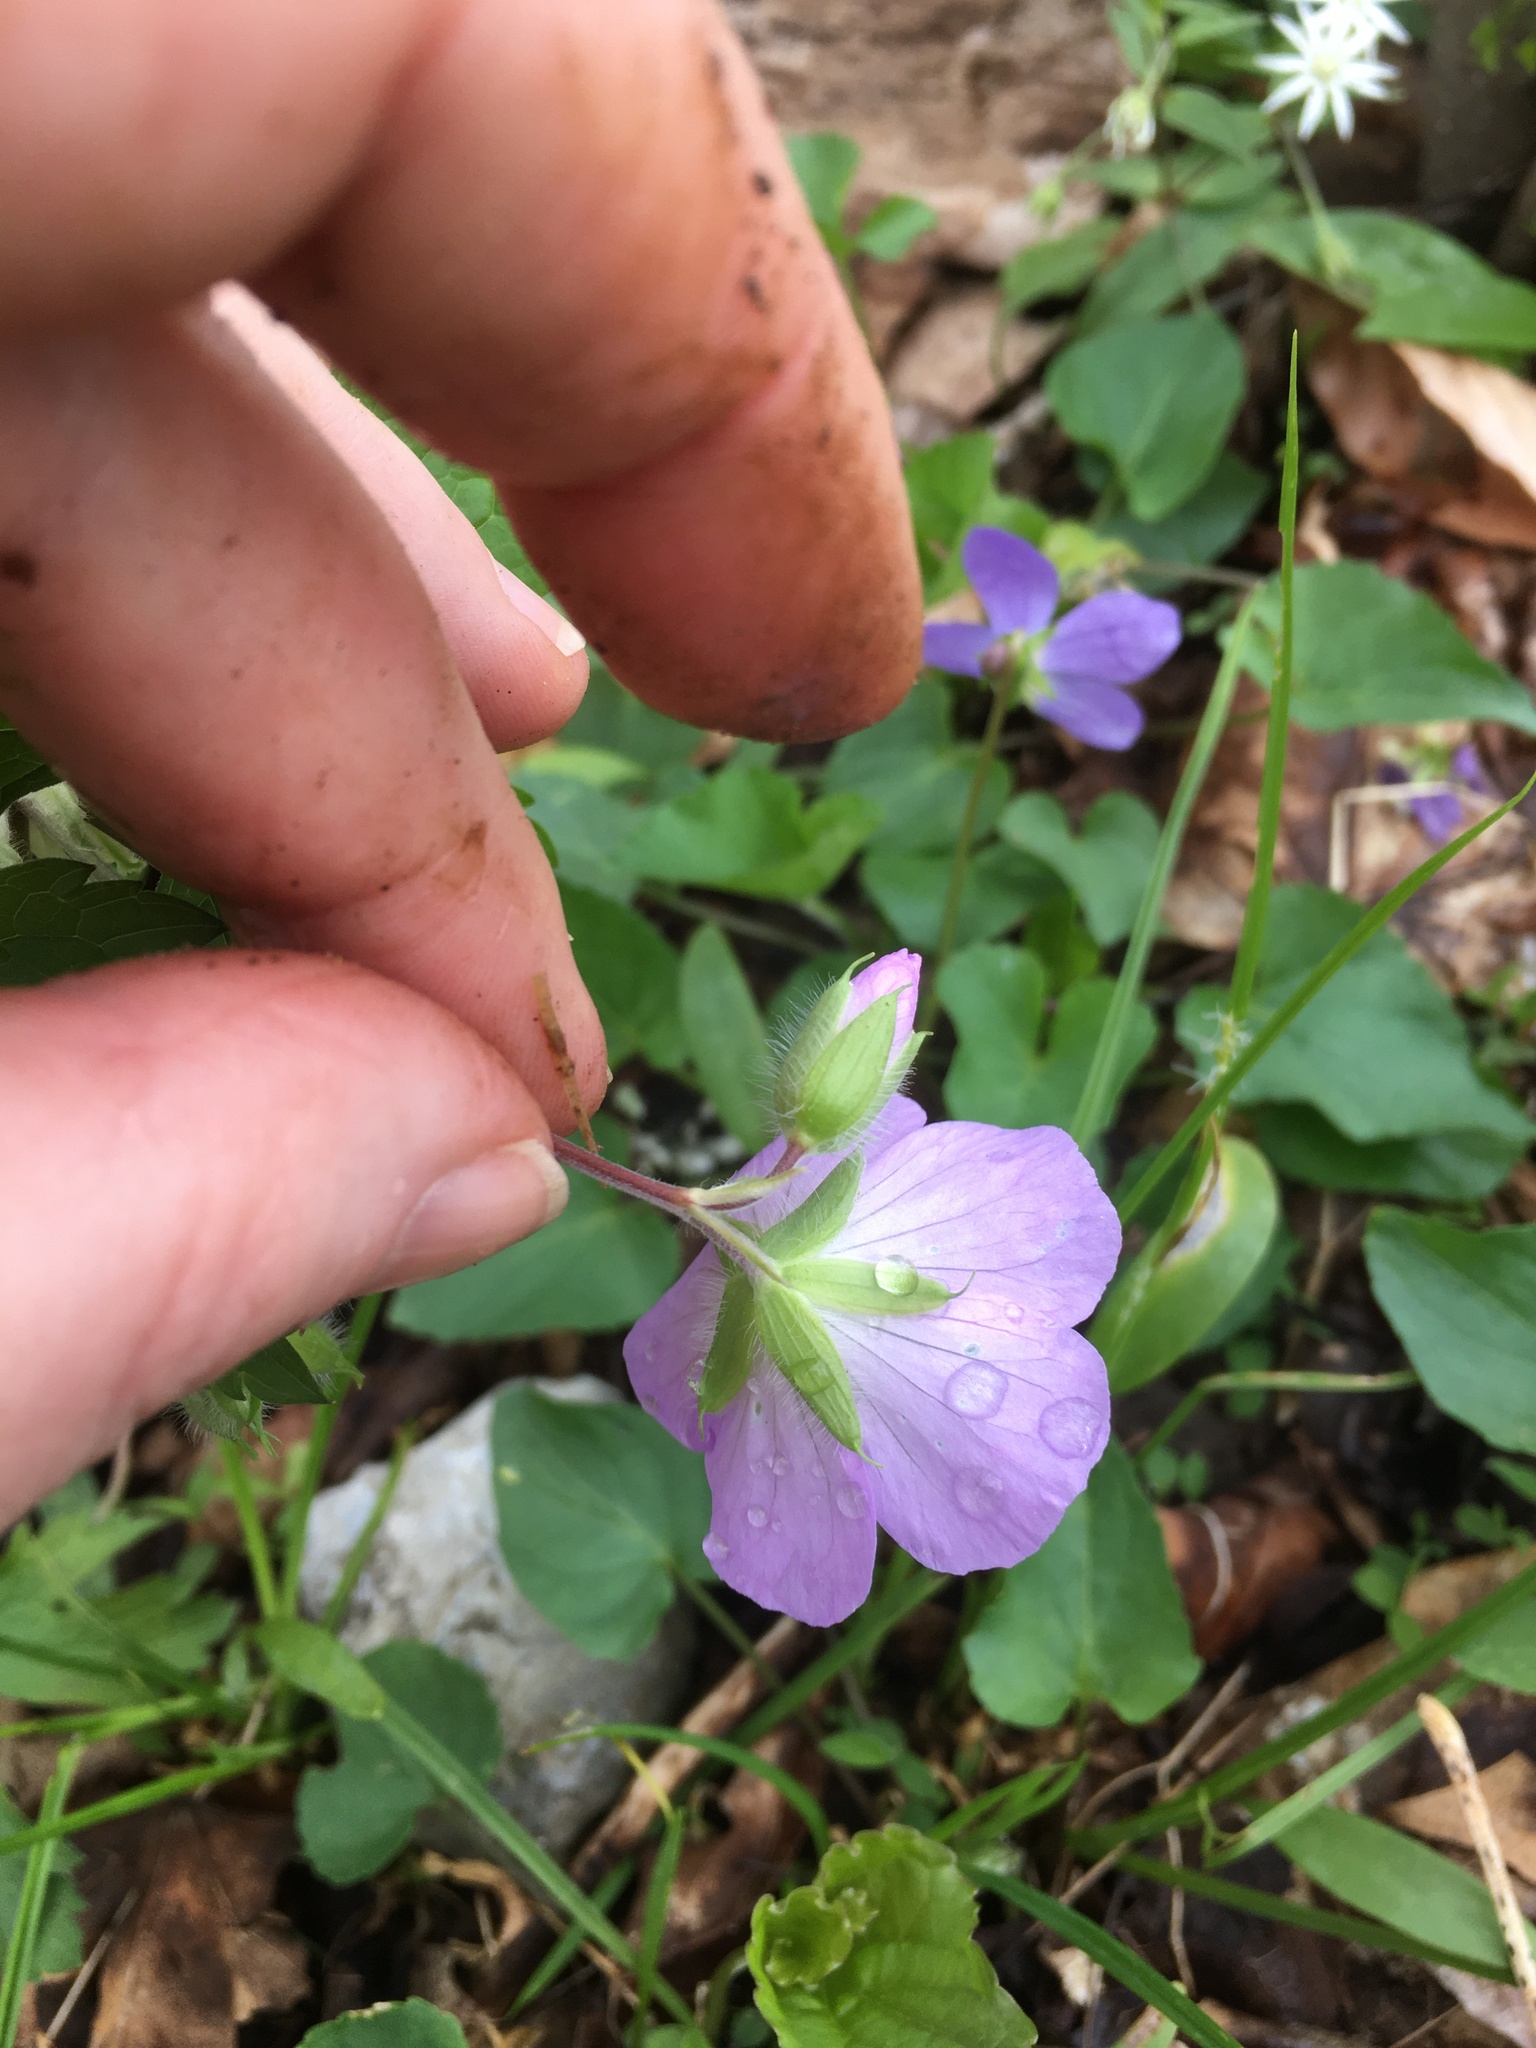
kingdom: Plantae
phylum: Tracheophyta
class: Magnoliopsida
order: Geraniales
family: Geraniaceae
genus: Geranium
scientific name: Geranium maculatum
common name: Spotted geranium
